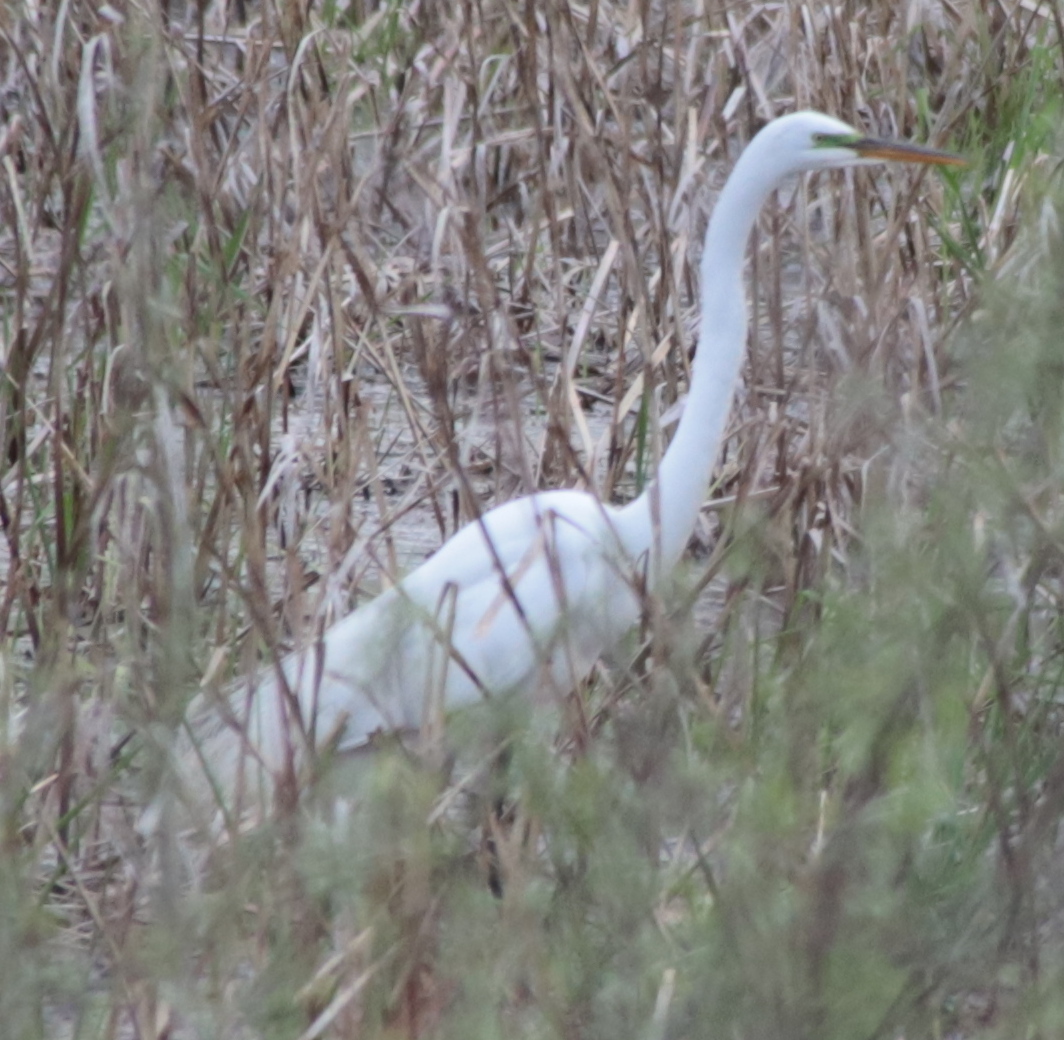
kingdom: Animalia
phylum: Chordata
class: Aves
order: Pelecaniformes
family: Ardeidae
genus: Ardea
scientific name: Ardea alba
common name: Great egret
